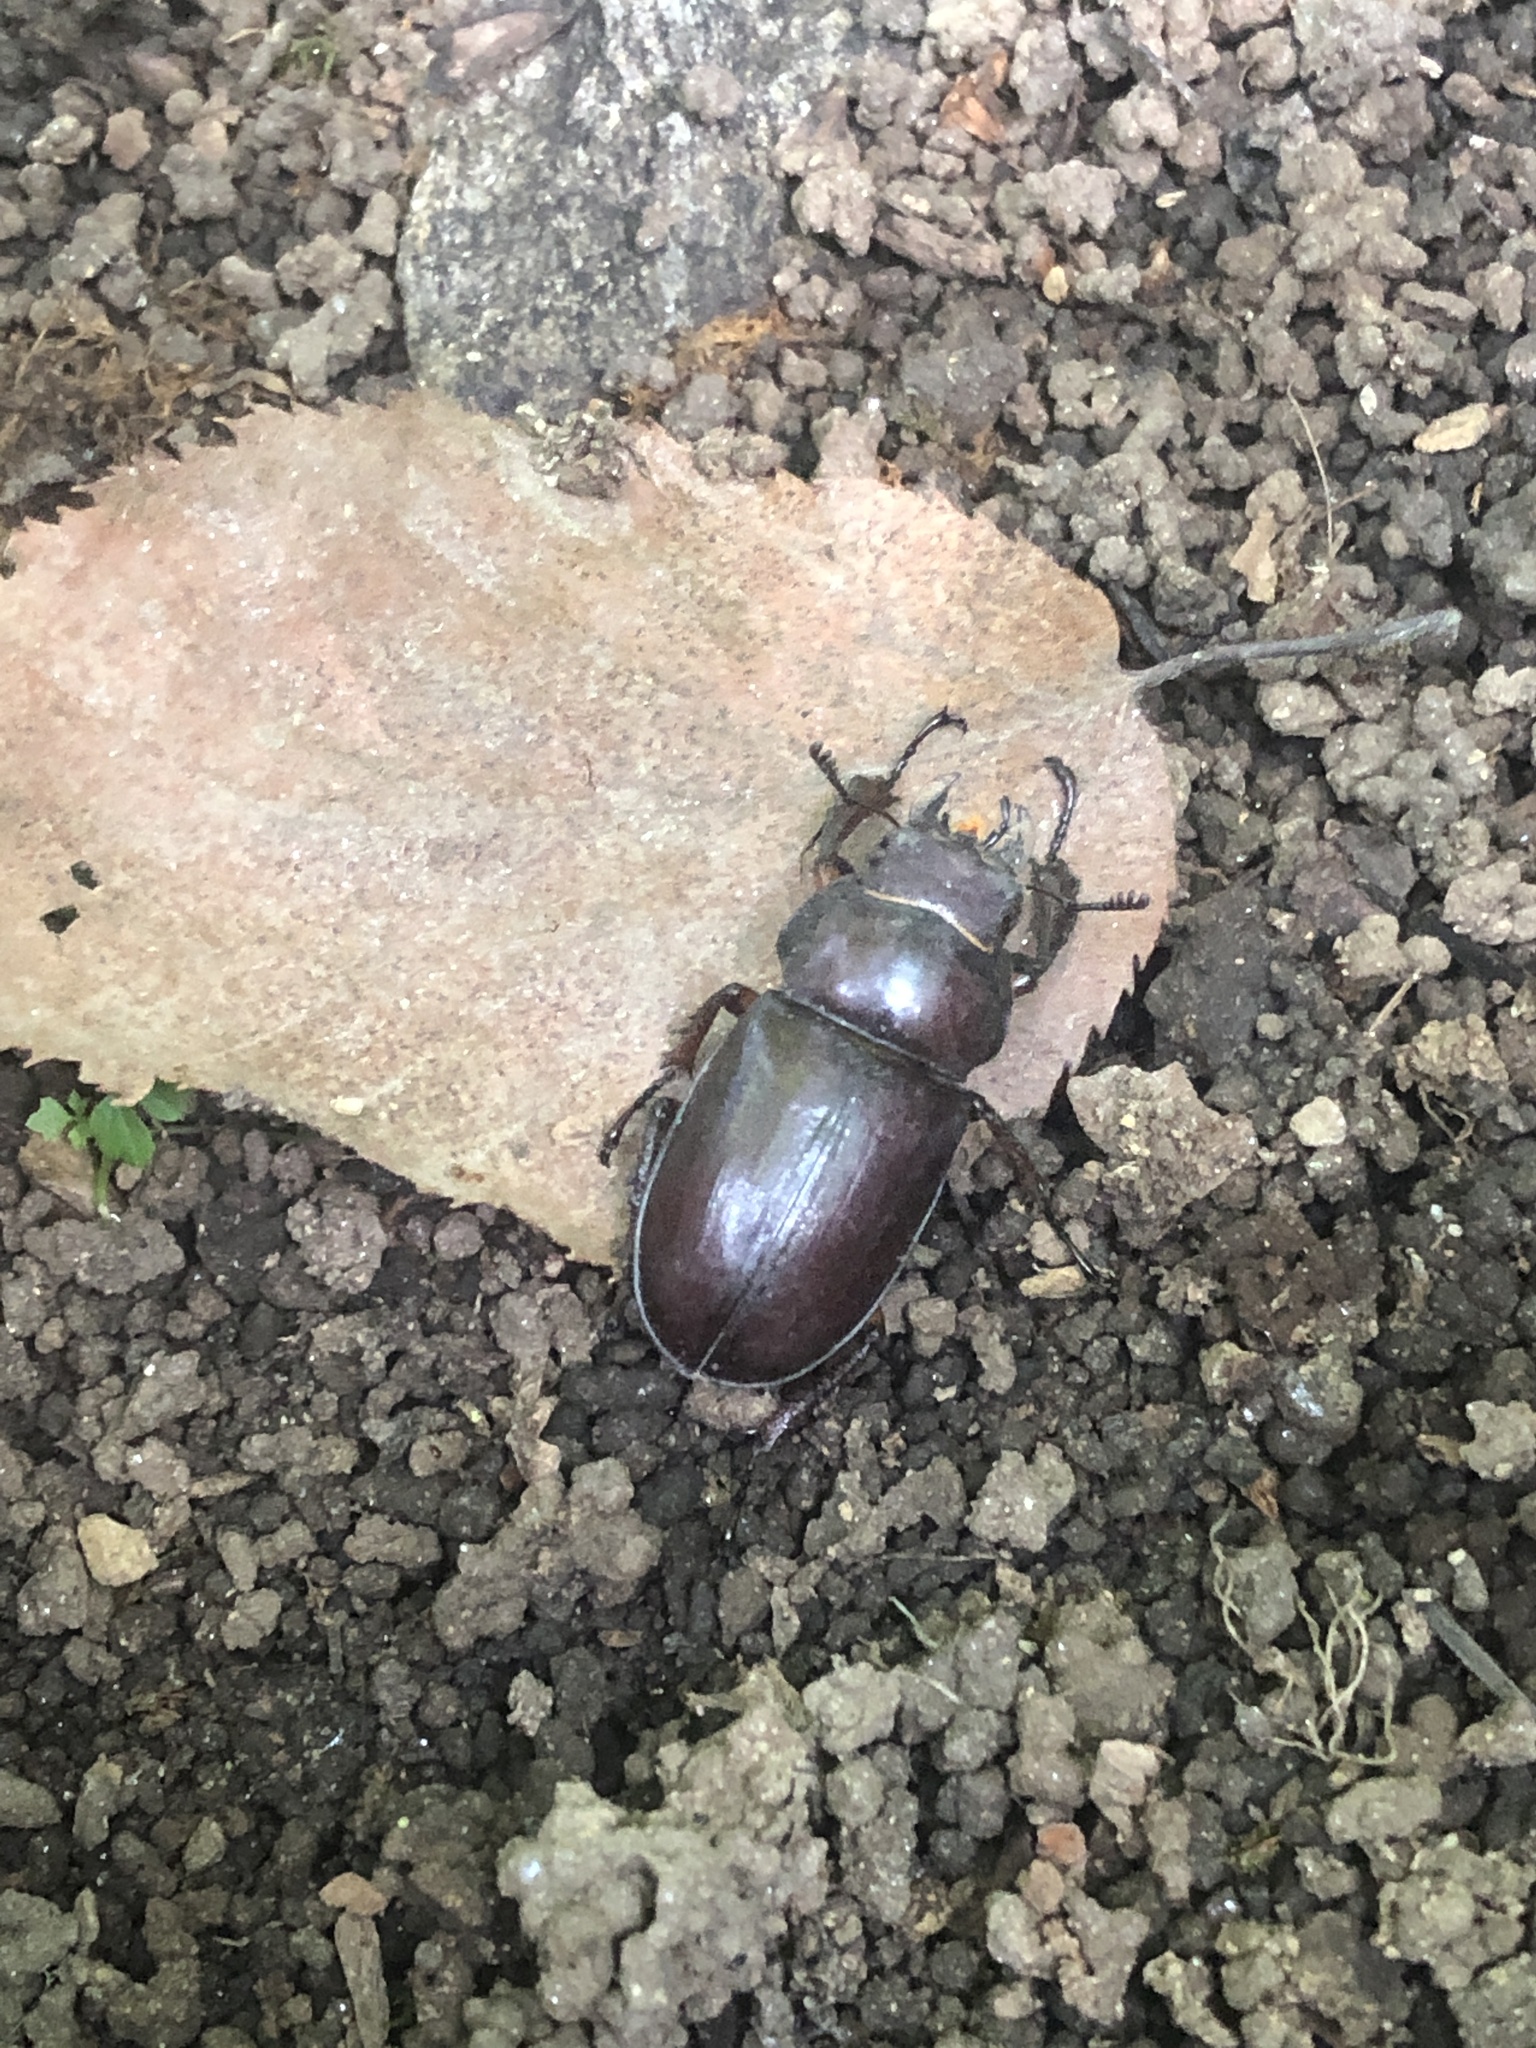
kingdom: Animalia
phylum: Arthropoda
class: Insecta
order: Coleoptera
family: Lucanidae
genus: Lucanus
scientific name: Lucanus capreolus
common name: Stag beetle
